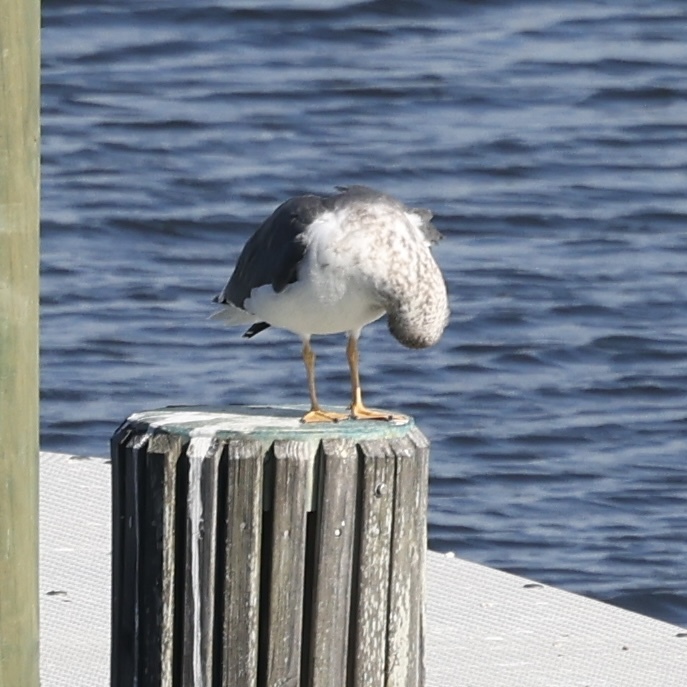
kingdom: Animalia
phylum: Chordata
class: Aves
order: Charadriiformes
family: Laridae
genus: Larus
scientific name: Larus fuscus
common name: Lesser black-backed gull
